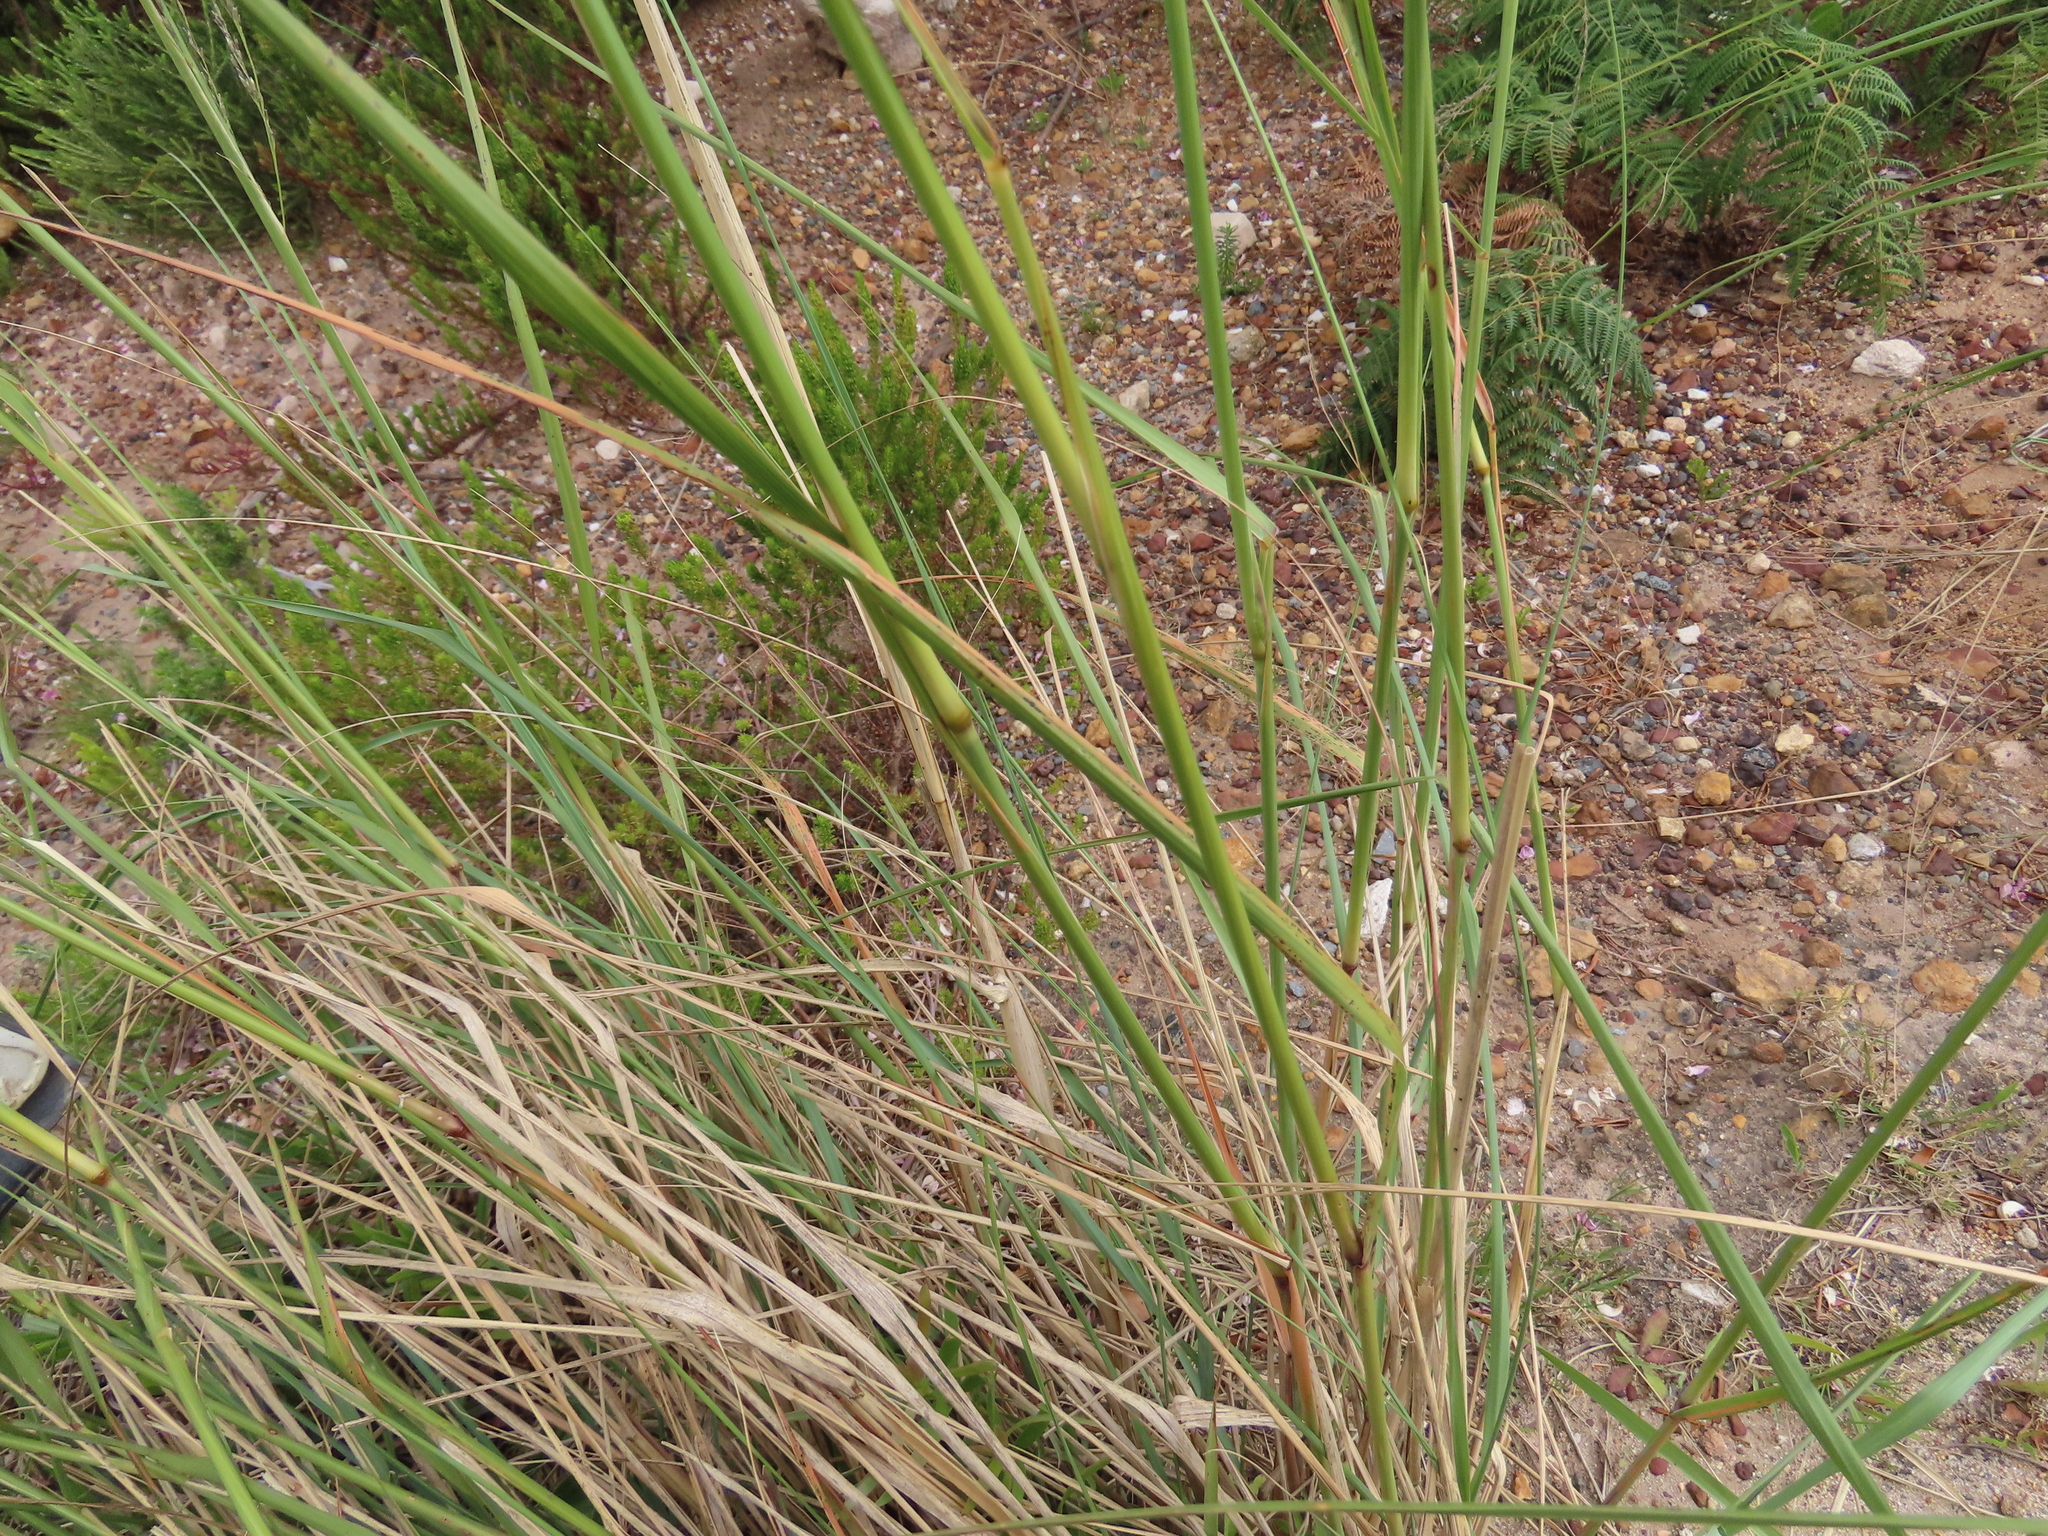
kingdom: Plantae
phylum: Tracheophyta
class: Liliopsida
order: Poales
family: Poaceae
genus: Eragrostis
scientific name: Eragrostis curvula
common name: African love-grass
